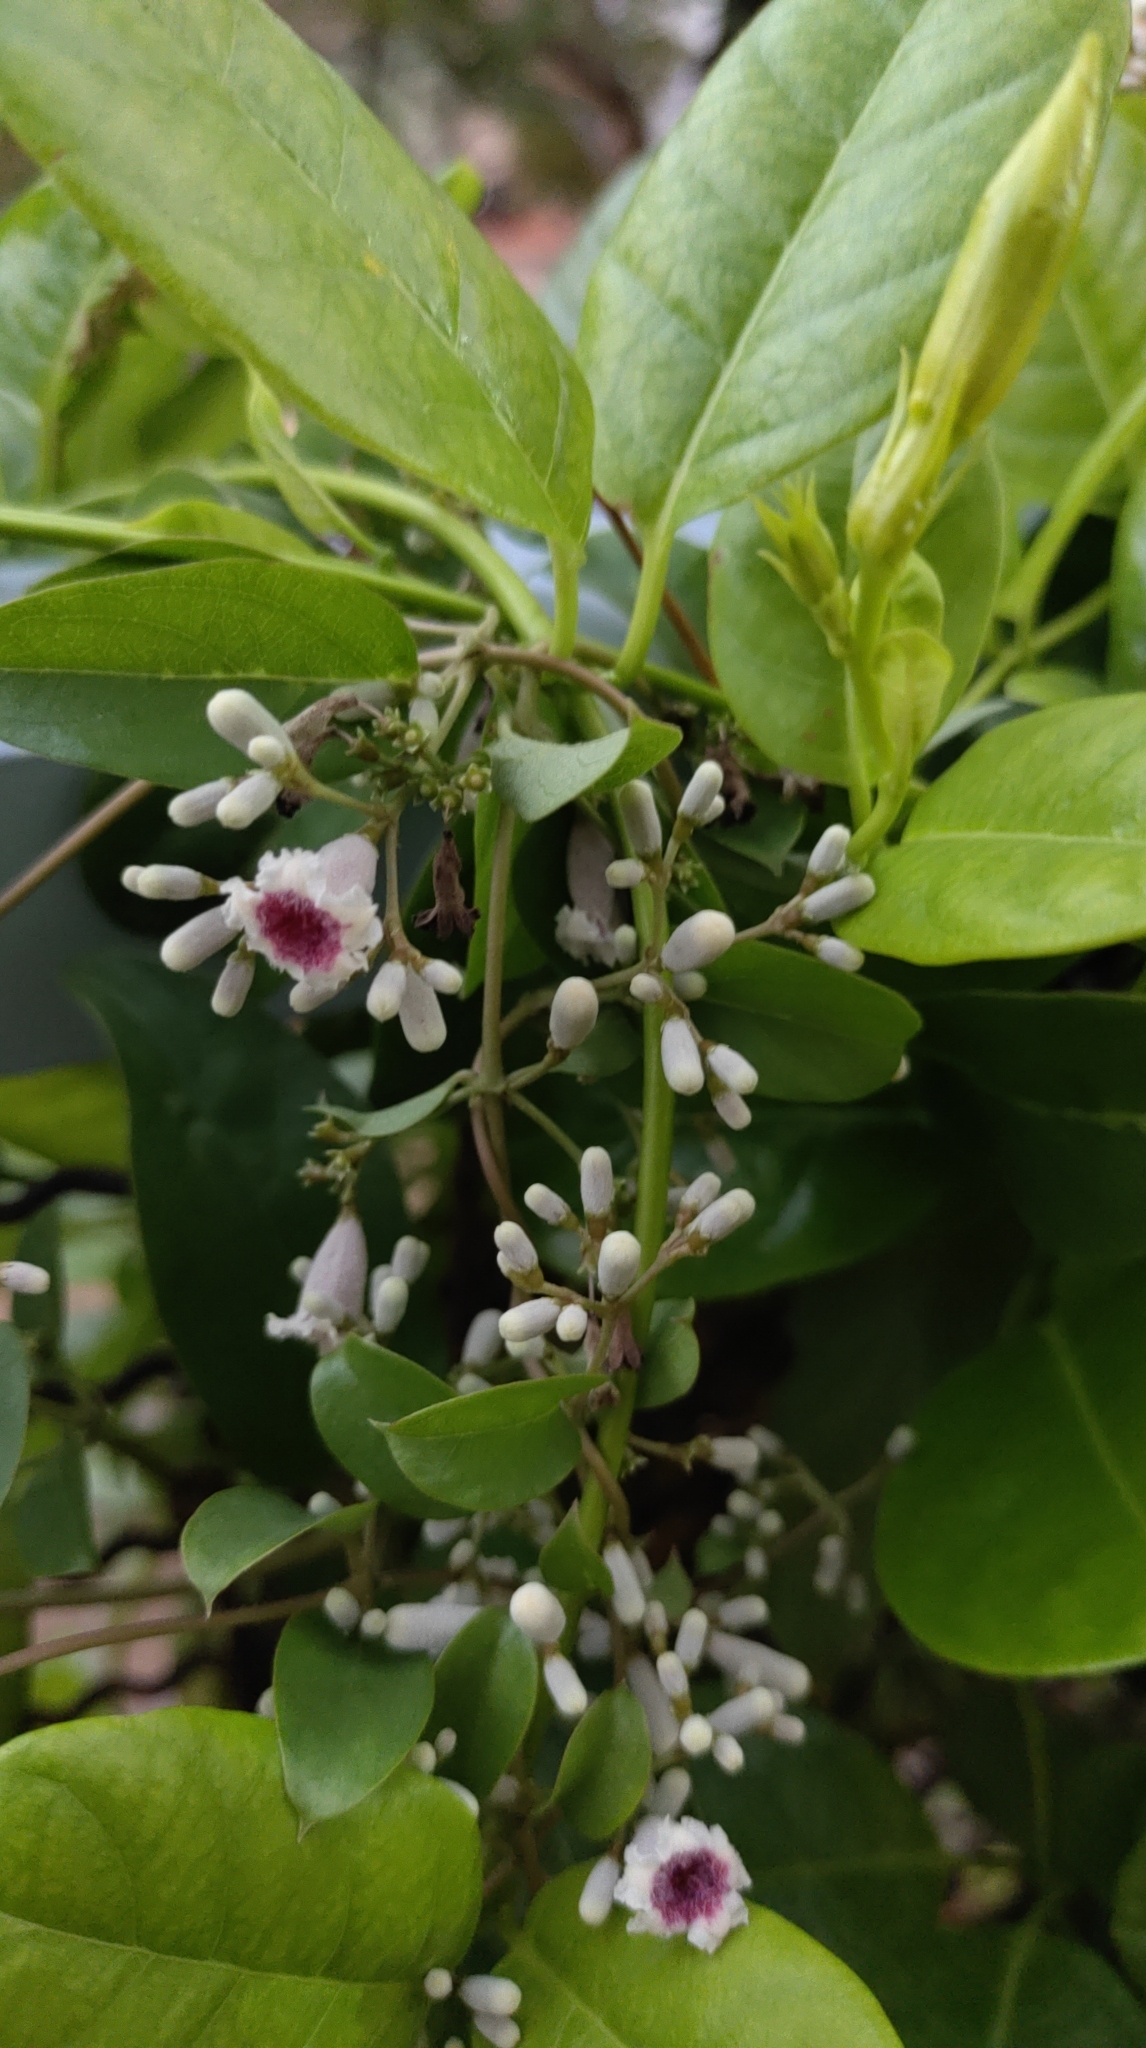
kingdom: Plantae
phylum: Tracheophyta
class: Magnoliopsida
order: Gentianales
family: Rubiaceae
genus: Paederia
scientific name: Paederia foetida
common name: Stinkvine
